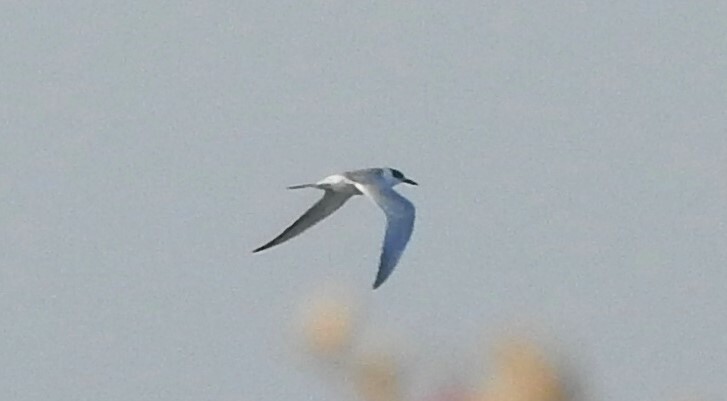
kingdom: Animalia
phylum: Chordata
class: Aves
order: Charadriiformes
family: Laridae
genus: Sterna
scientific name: Sterna hirundo
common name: Common tern
